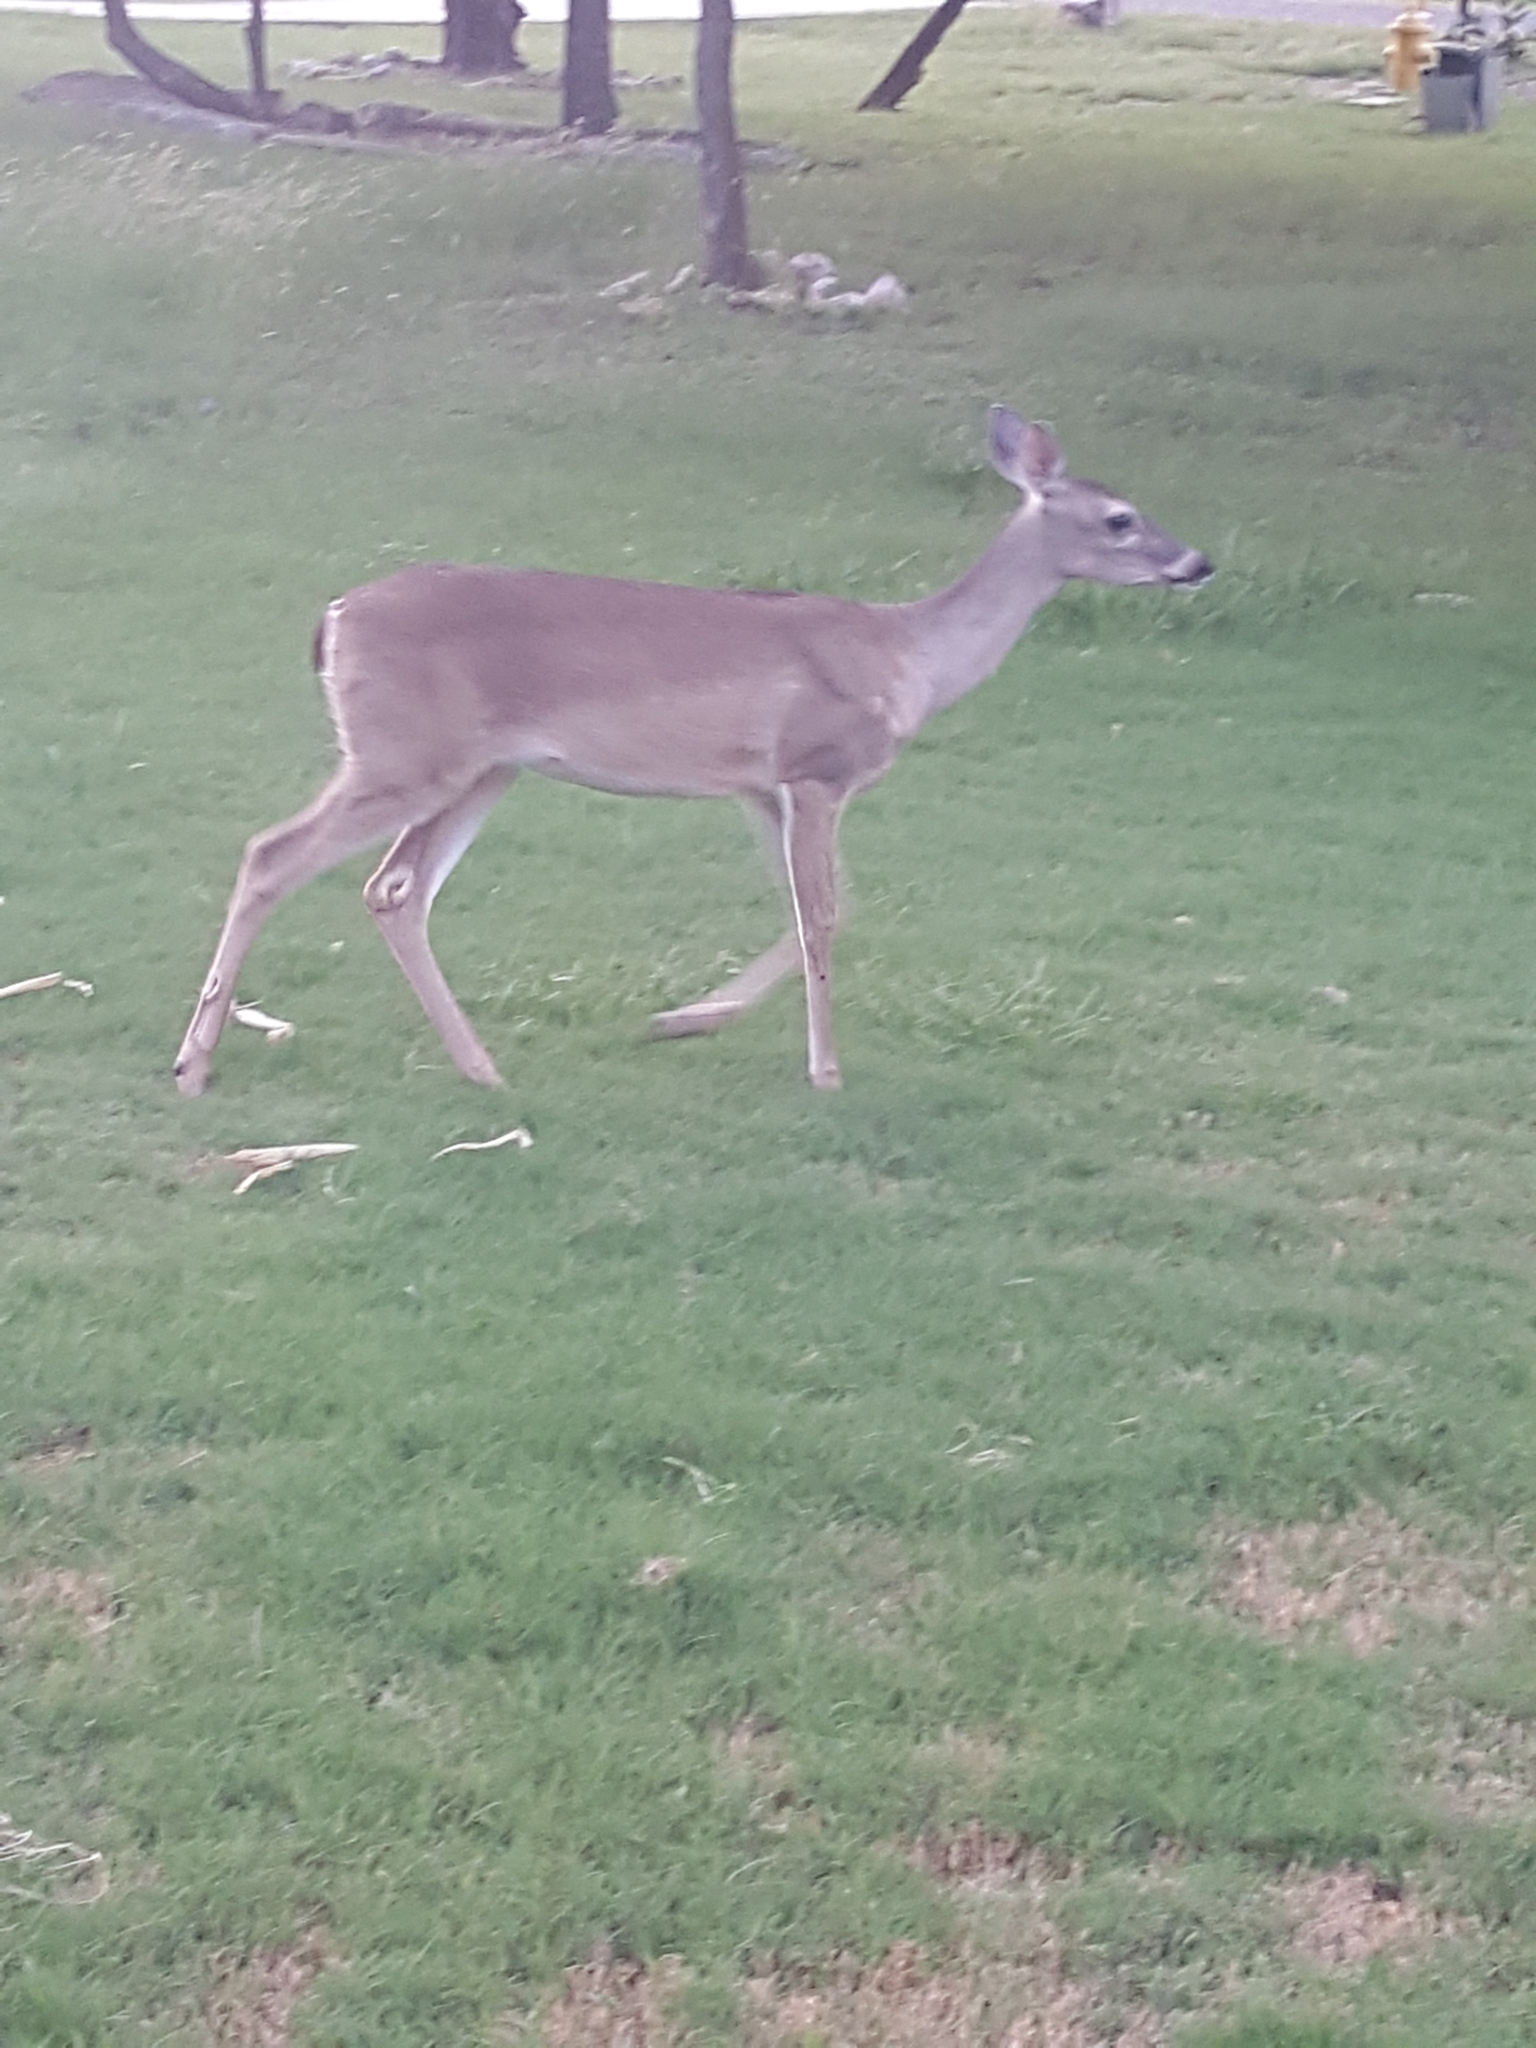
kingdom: Animalia
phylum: Chordata
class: Mammalia
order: Artiodactyla
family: Cervidae
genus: Odocoileus
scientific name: Odocoileus virginianus
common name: White-tailed deer
